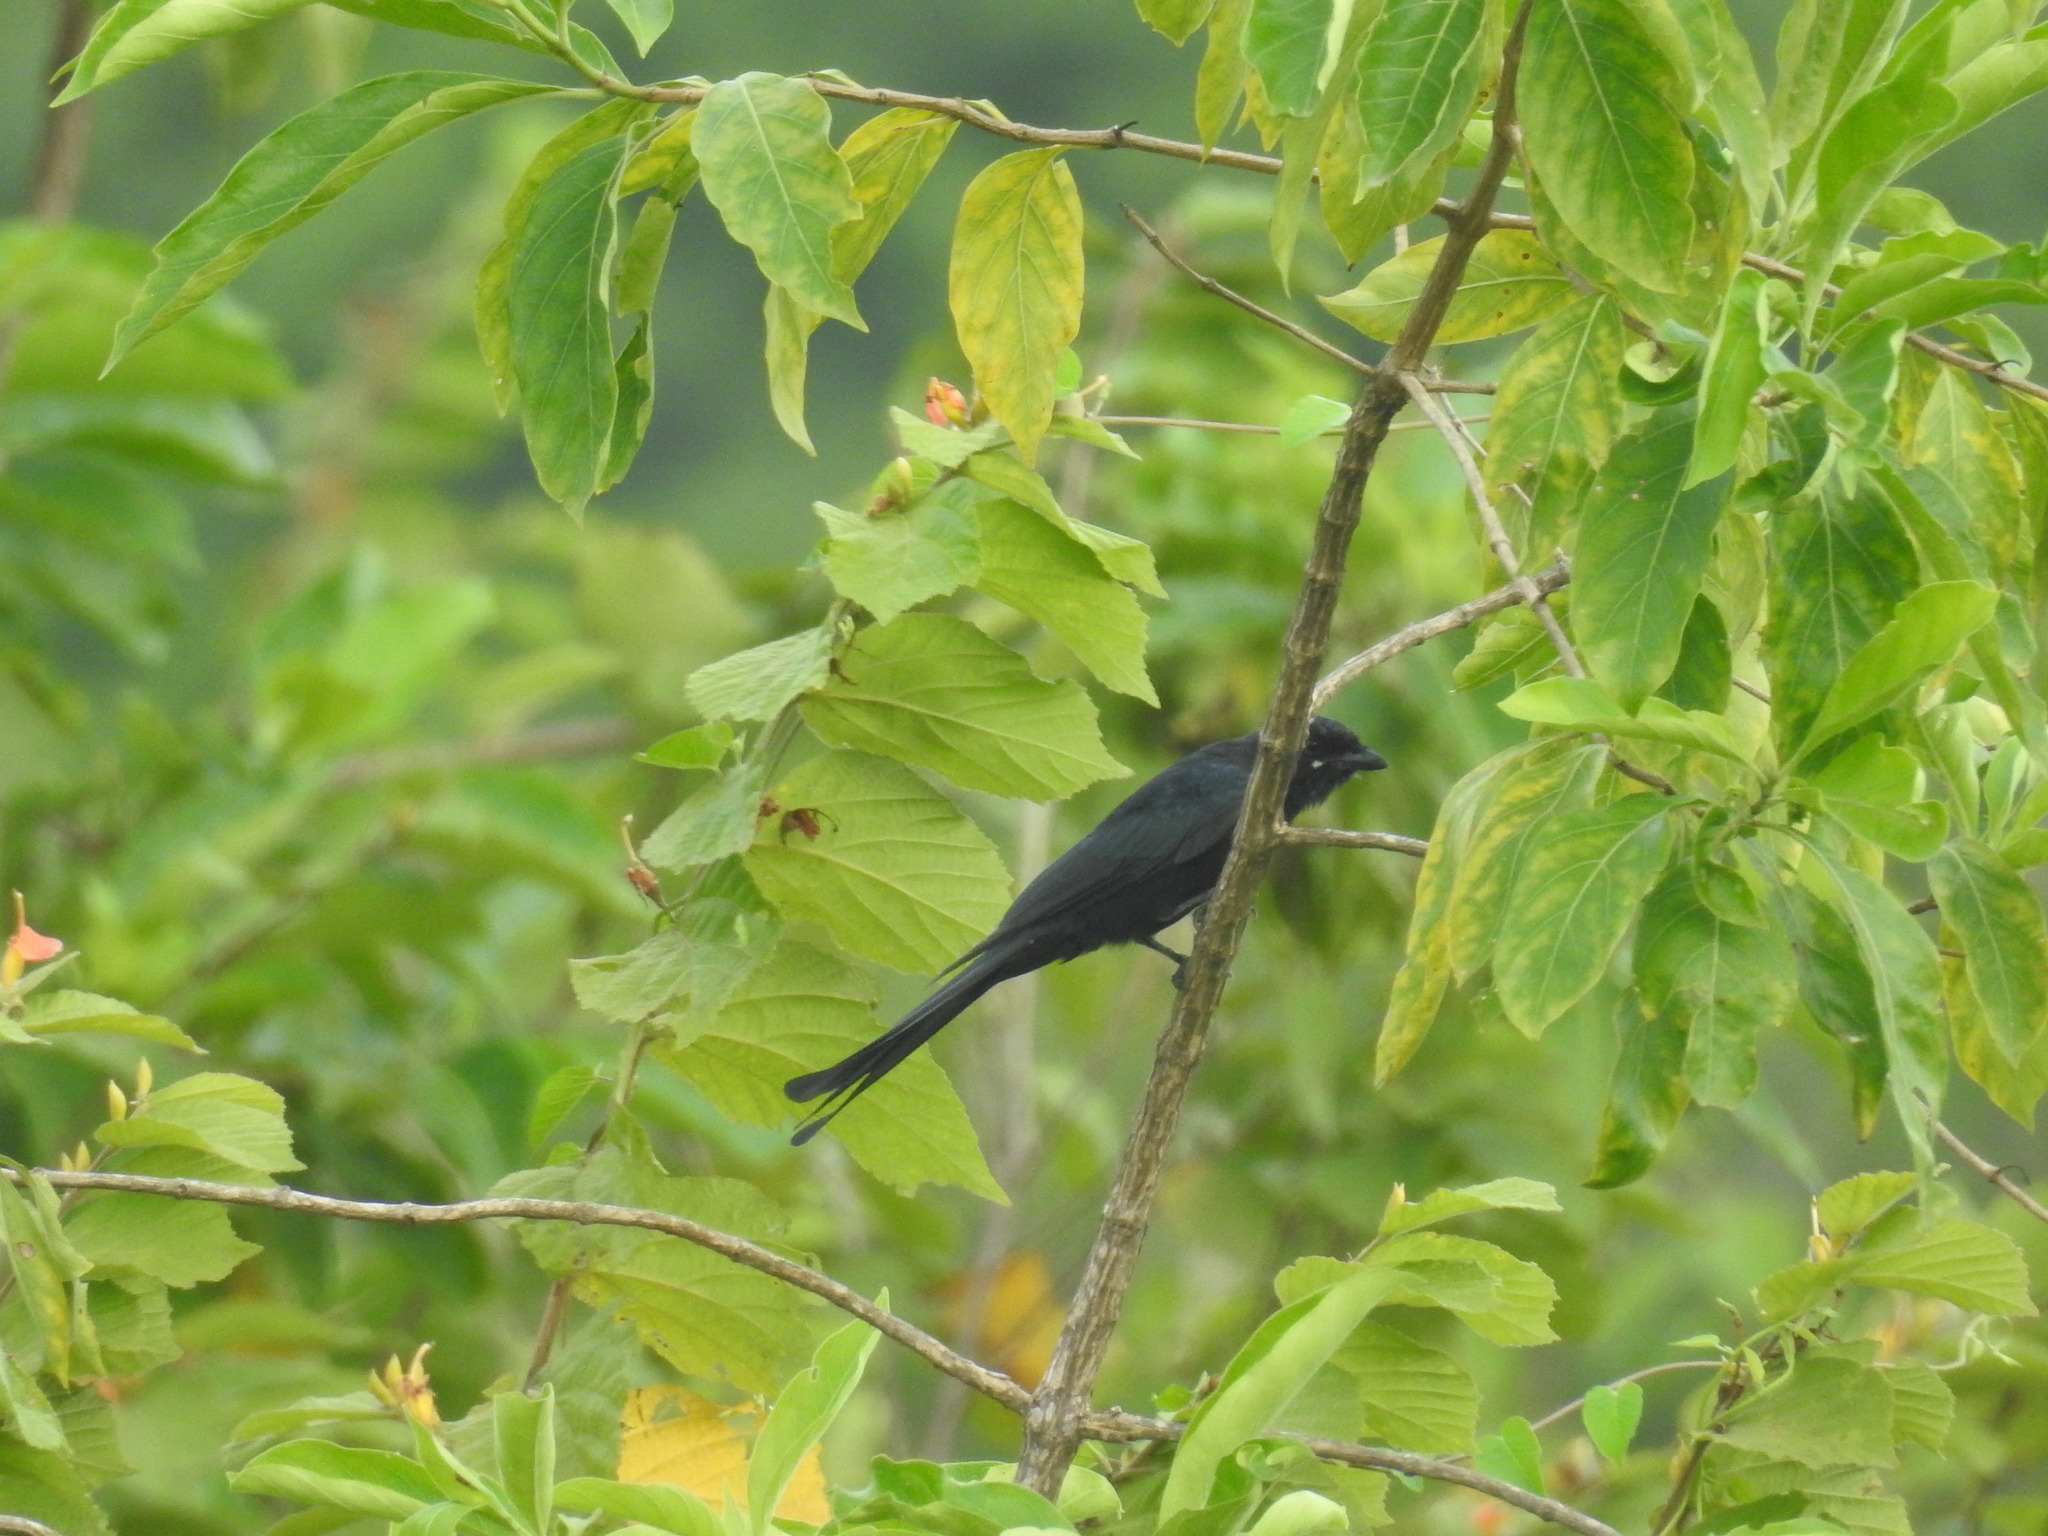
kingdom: Animalia
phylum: Chordata
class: Aves
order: Passeriformes
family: Dicruridae
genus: Dicrurus
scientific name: Dicrurus macrocercus
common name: Black drongo
